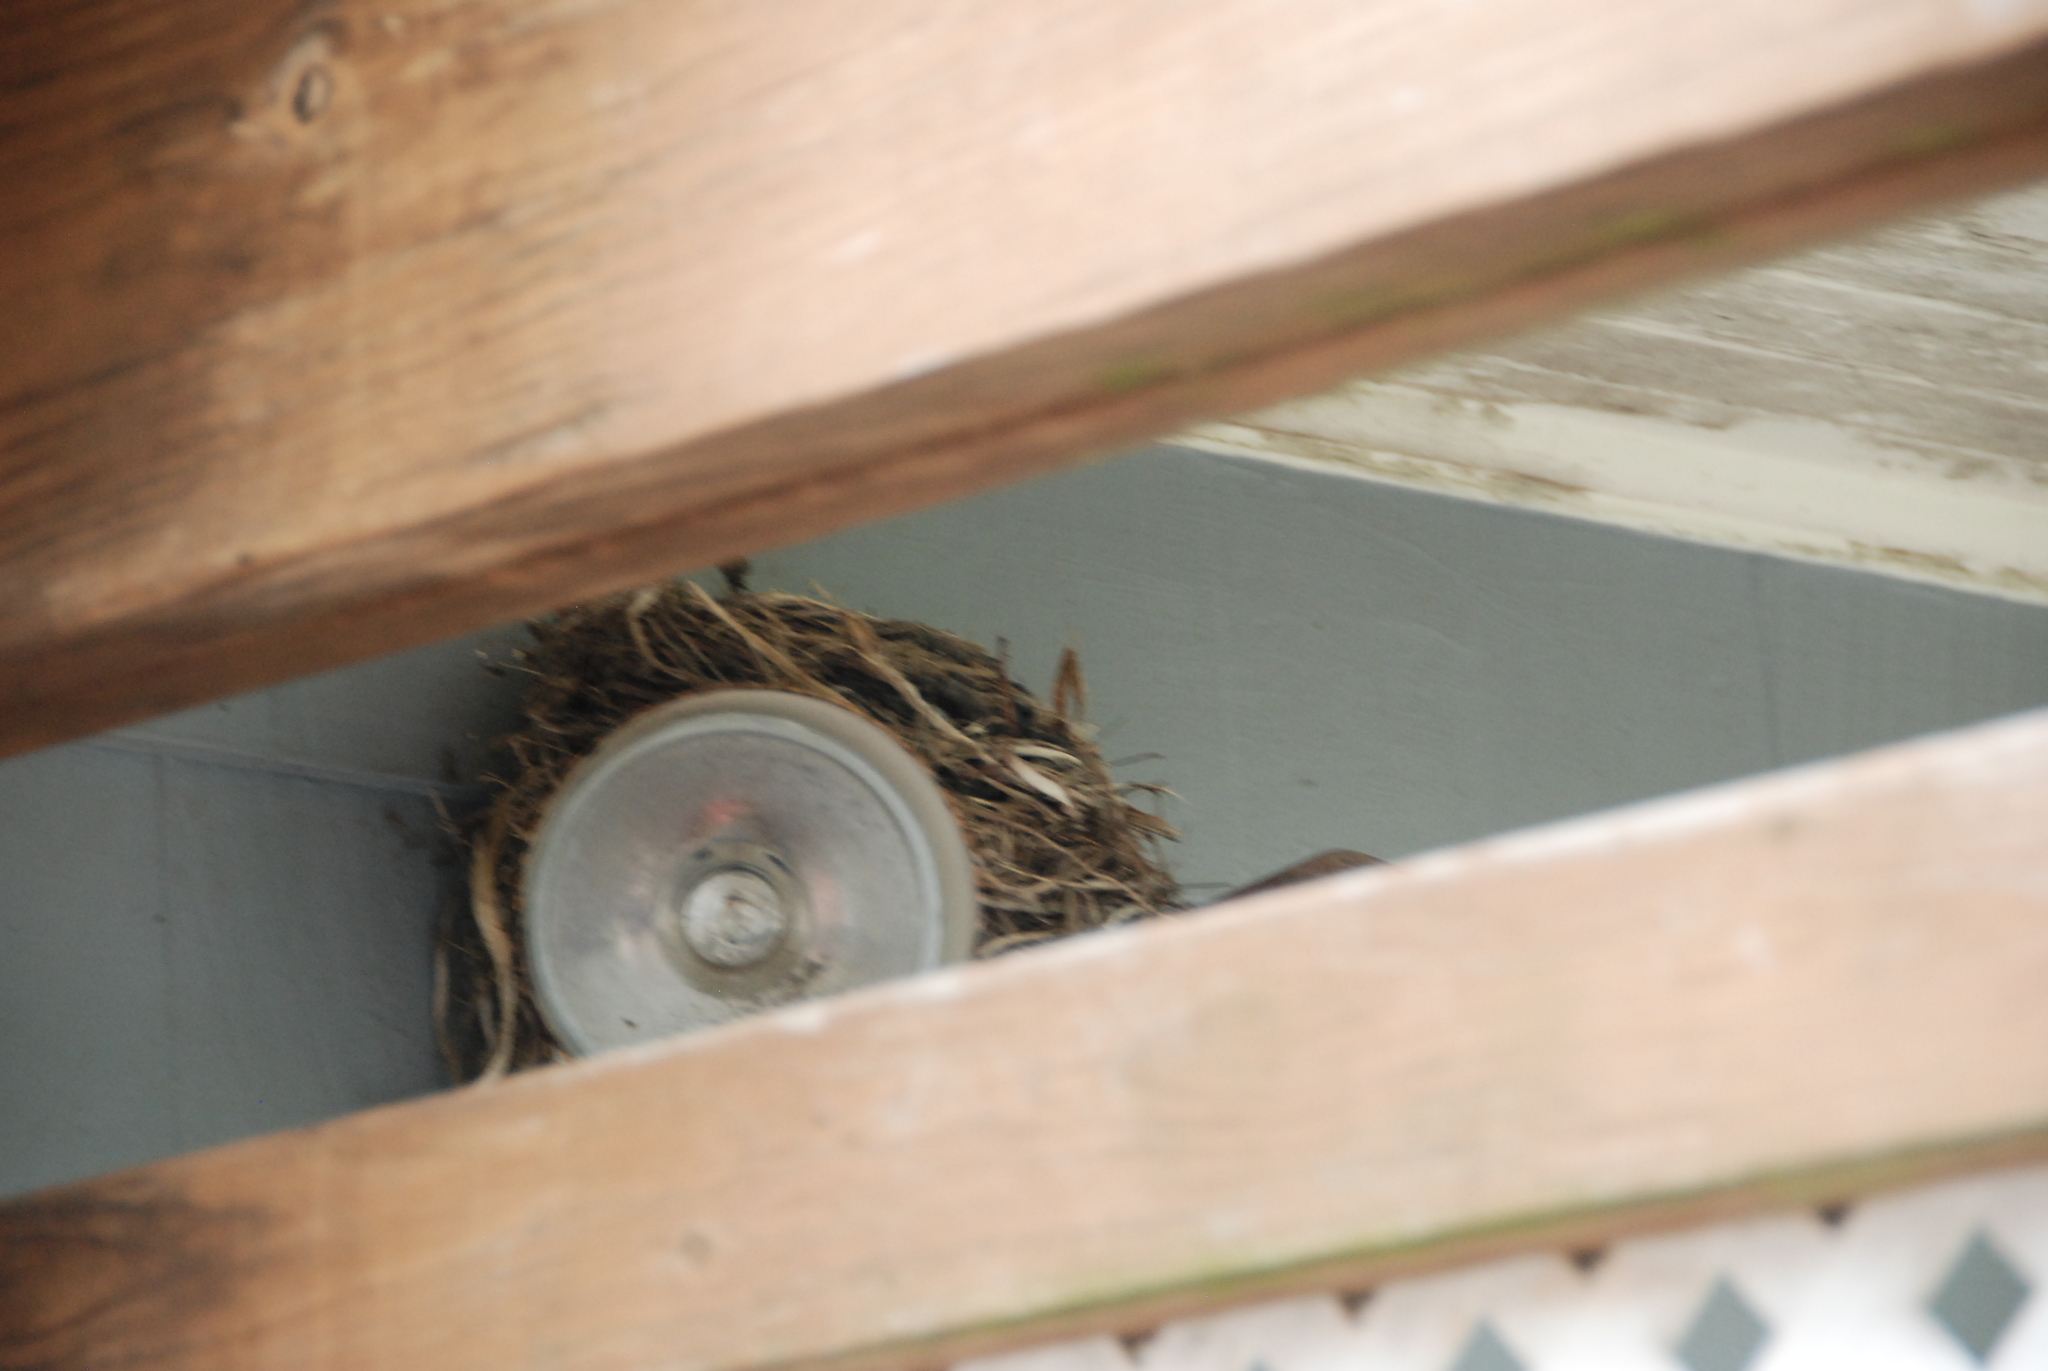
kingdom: Animalia
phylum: Chordata
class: Aves
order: Passeriformes
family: Turdidae
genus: Turdus
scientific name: Turdus migratorius
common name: American robin
